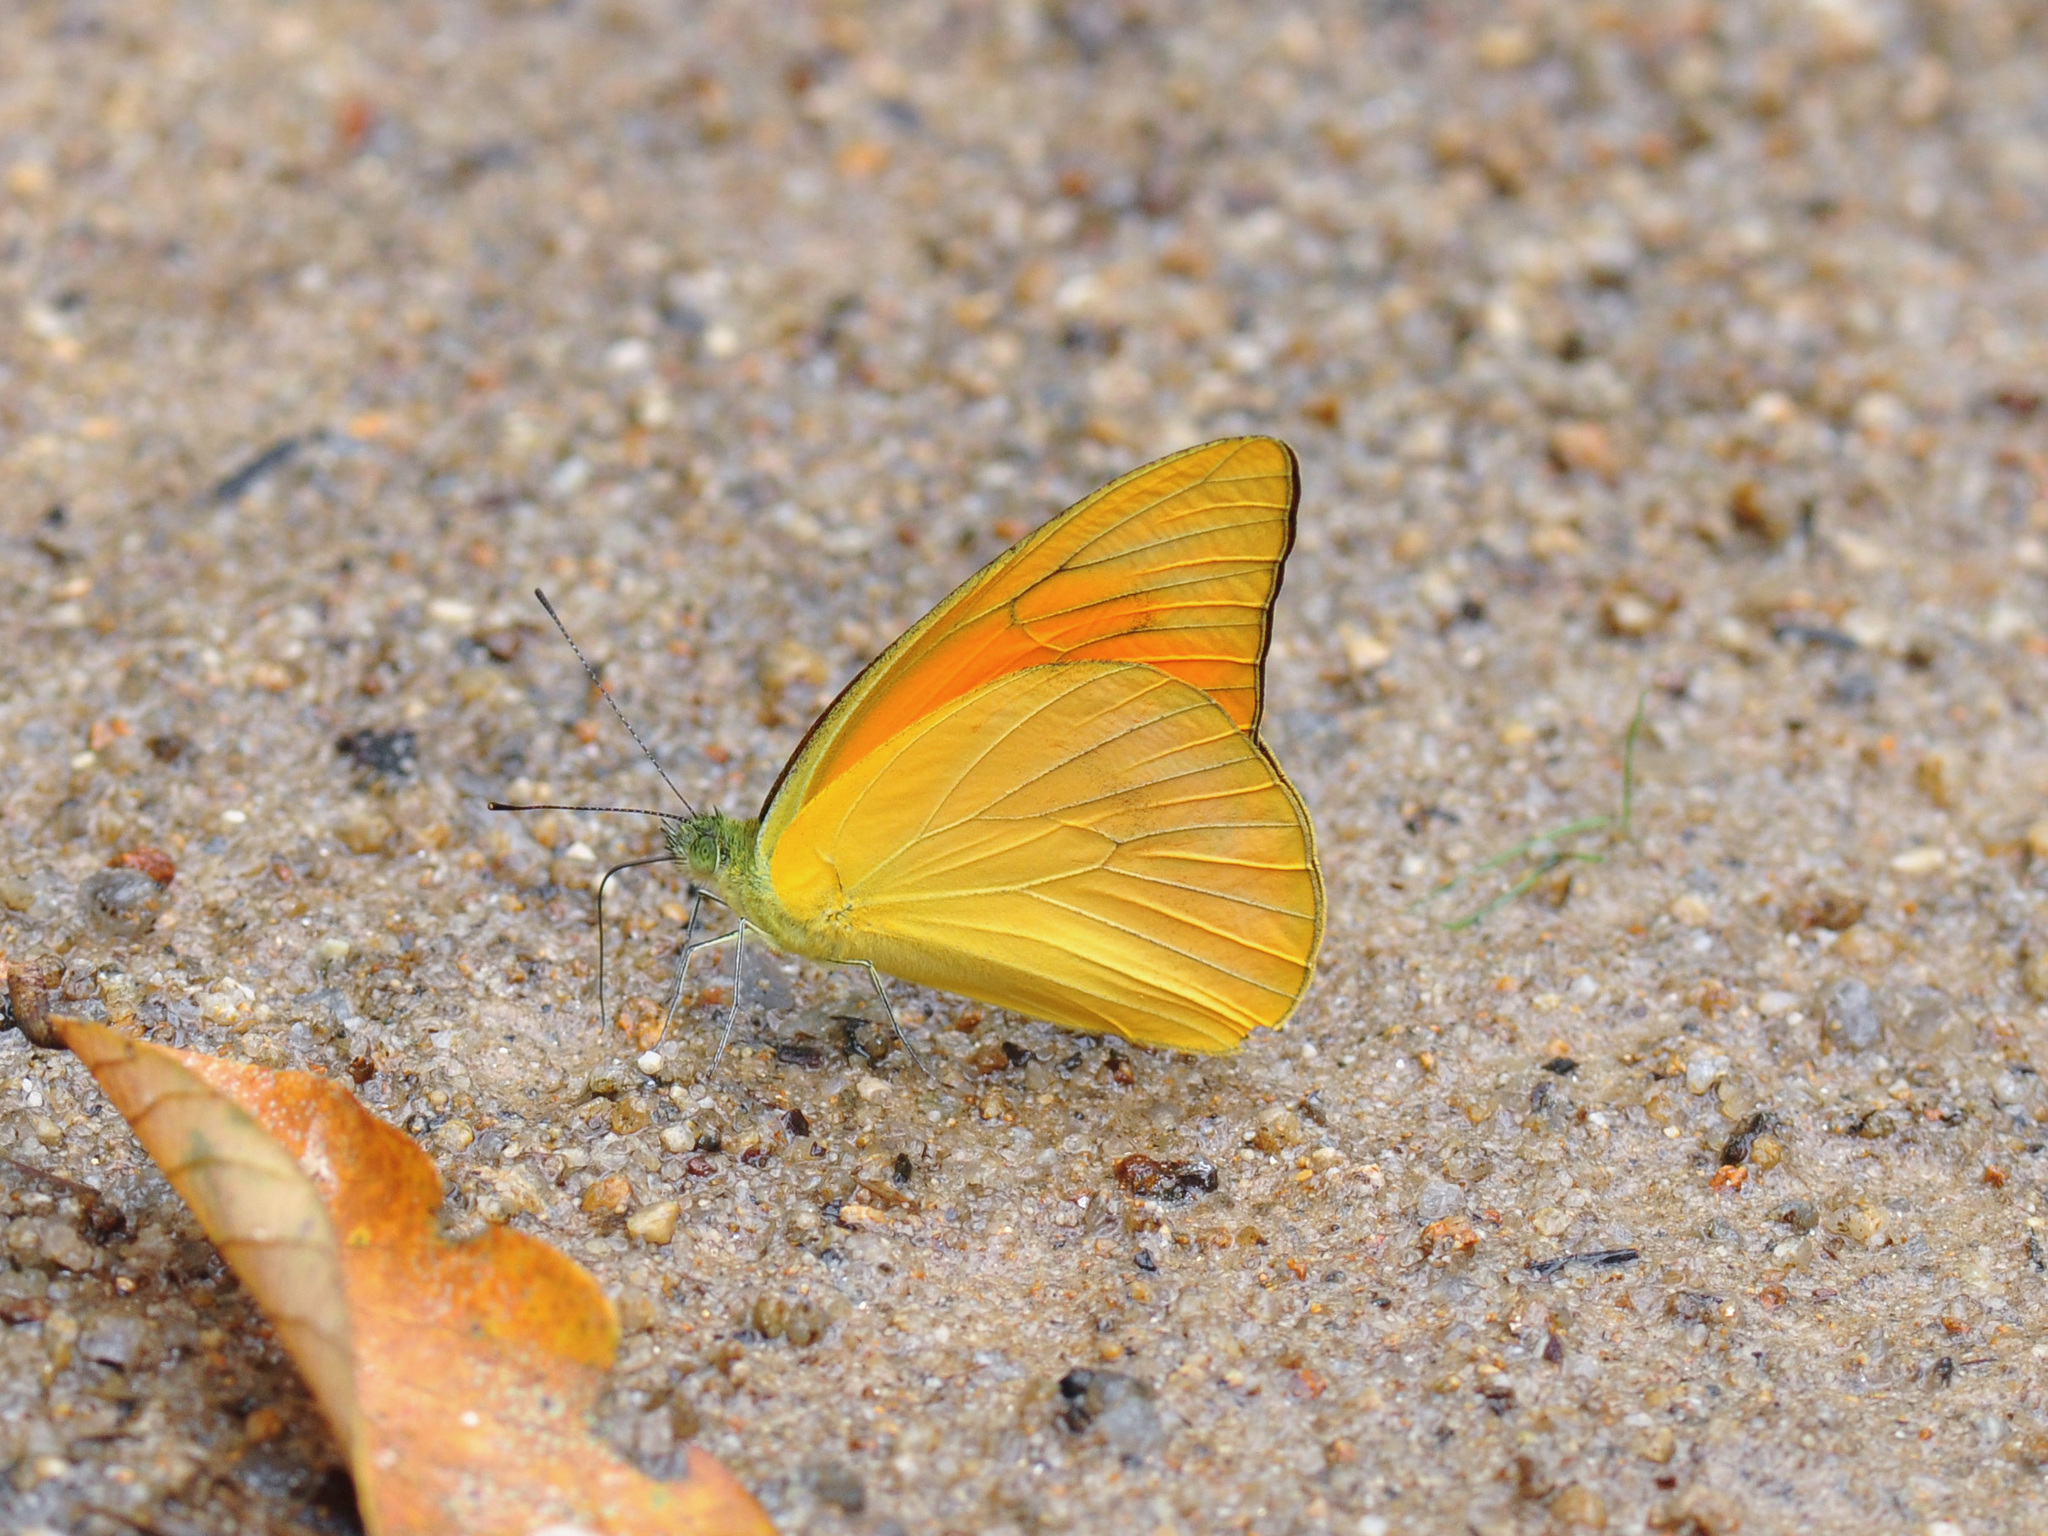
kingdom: Animalia
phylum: Arthropoda
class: Insecta
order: Lepidoptera
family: Pieridae
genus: Appias
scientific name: Appias nero
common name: Orange albatross
